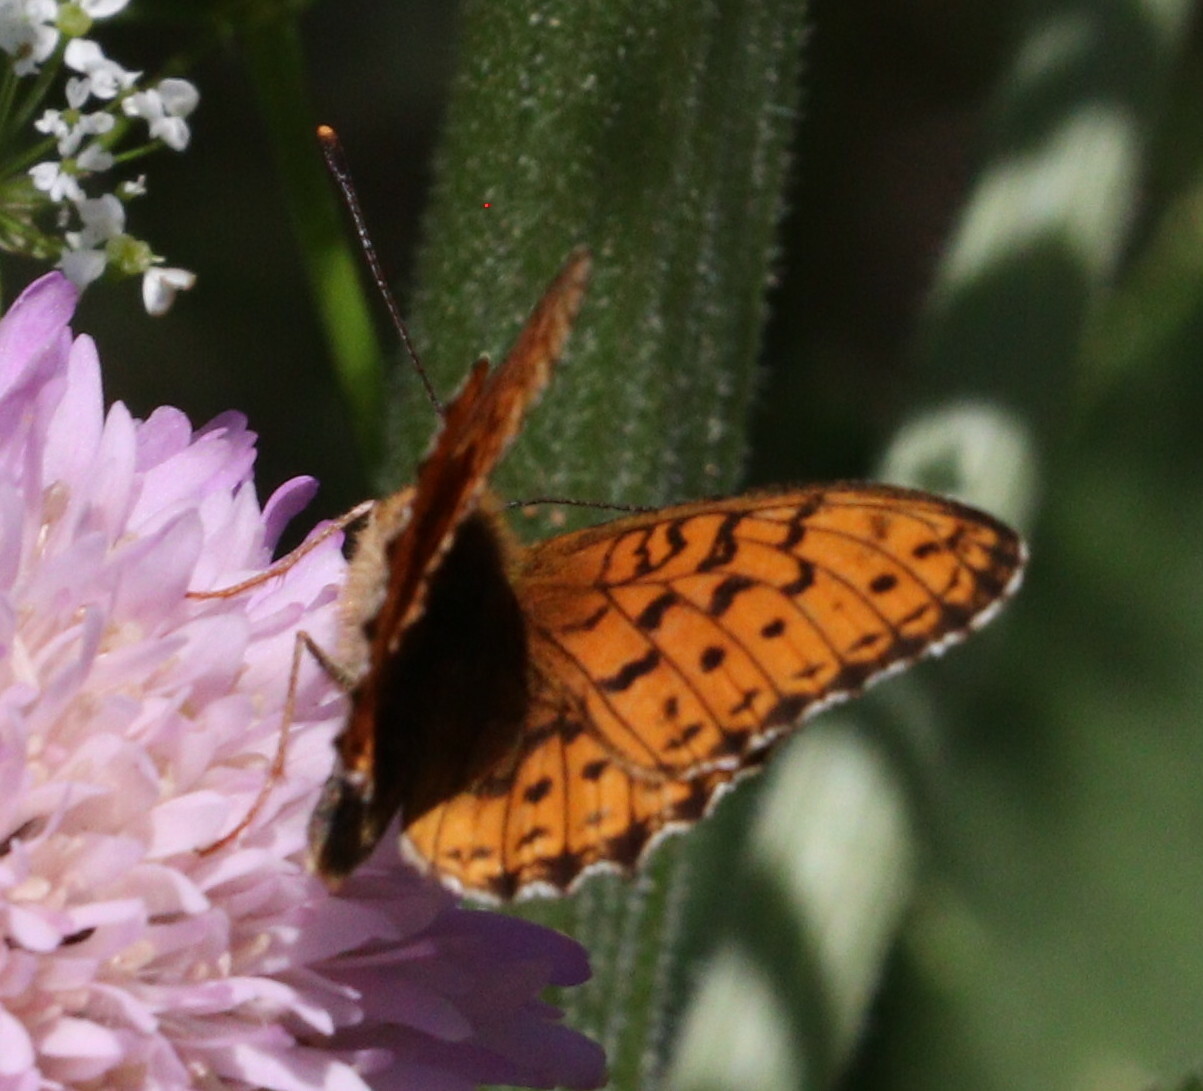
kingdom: Animalia
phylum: Arthropoda
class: Insecta
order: Lepidoptera
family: Nymphalidae
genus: Brenthis
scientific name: Brenthis ino
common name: Lesser marbled fritillary
